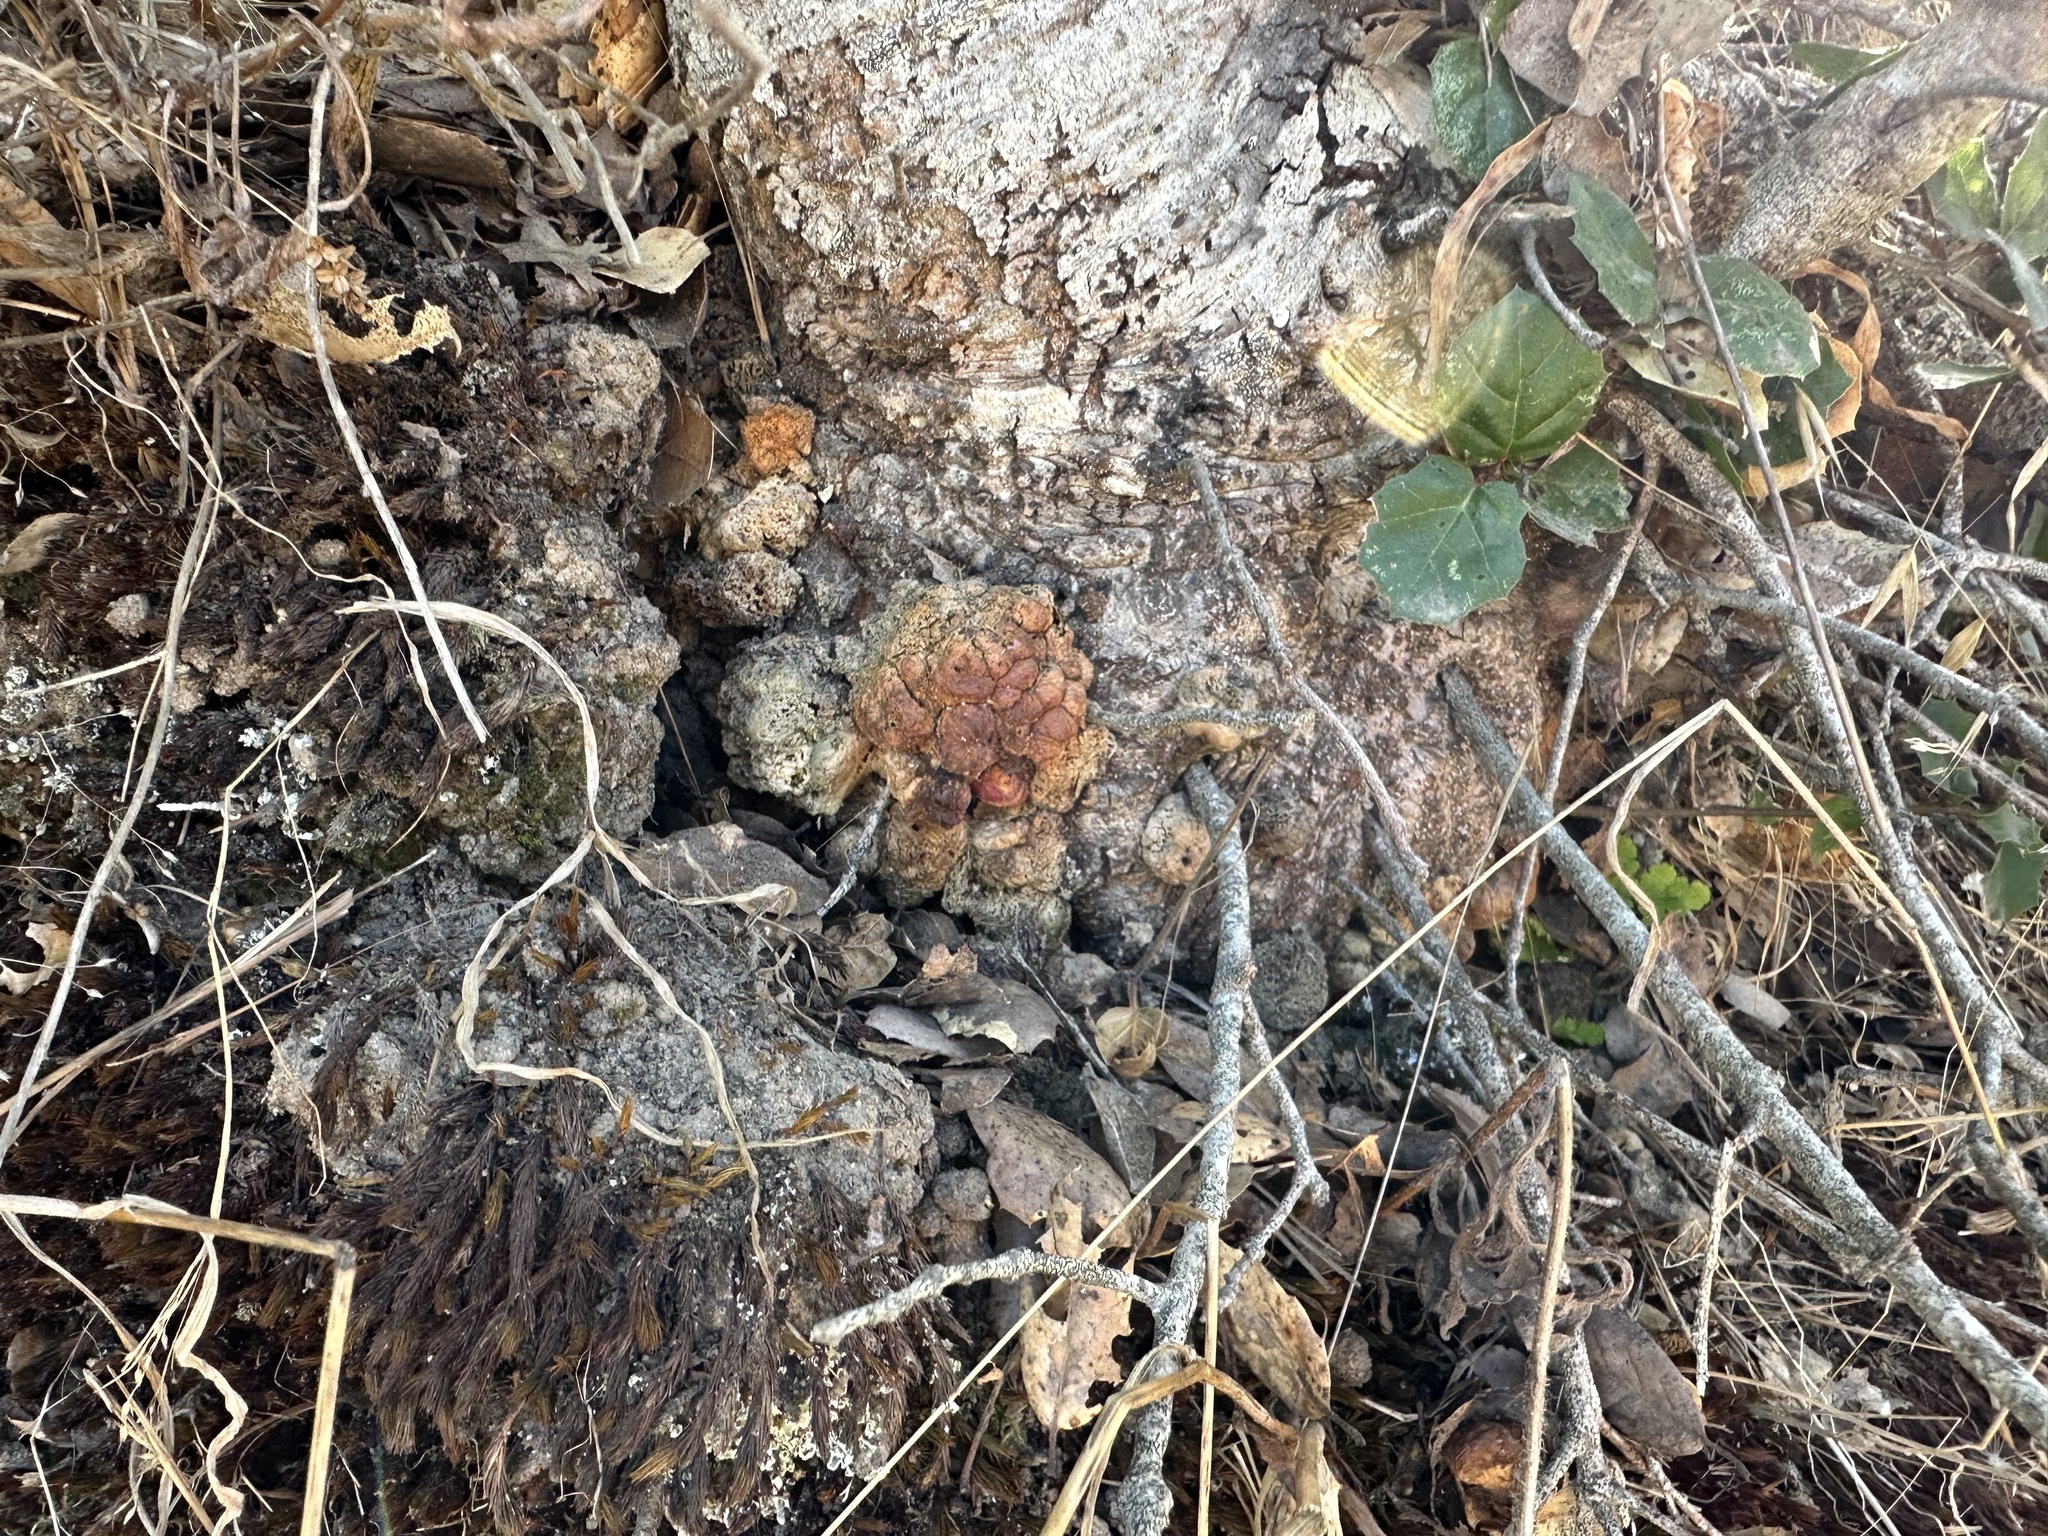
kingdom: Animalia
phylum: Arthropoda
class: Insecta
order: Hymenoptera
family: Cynipidae
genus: Callirhytis
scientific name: Callirhytis
